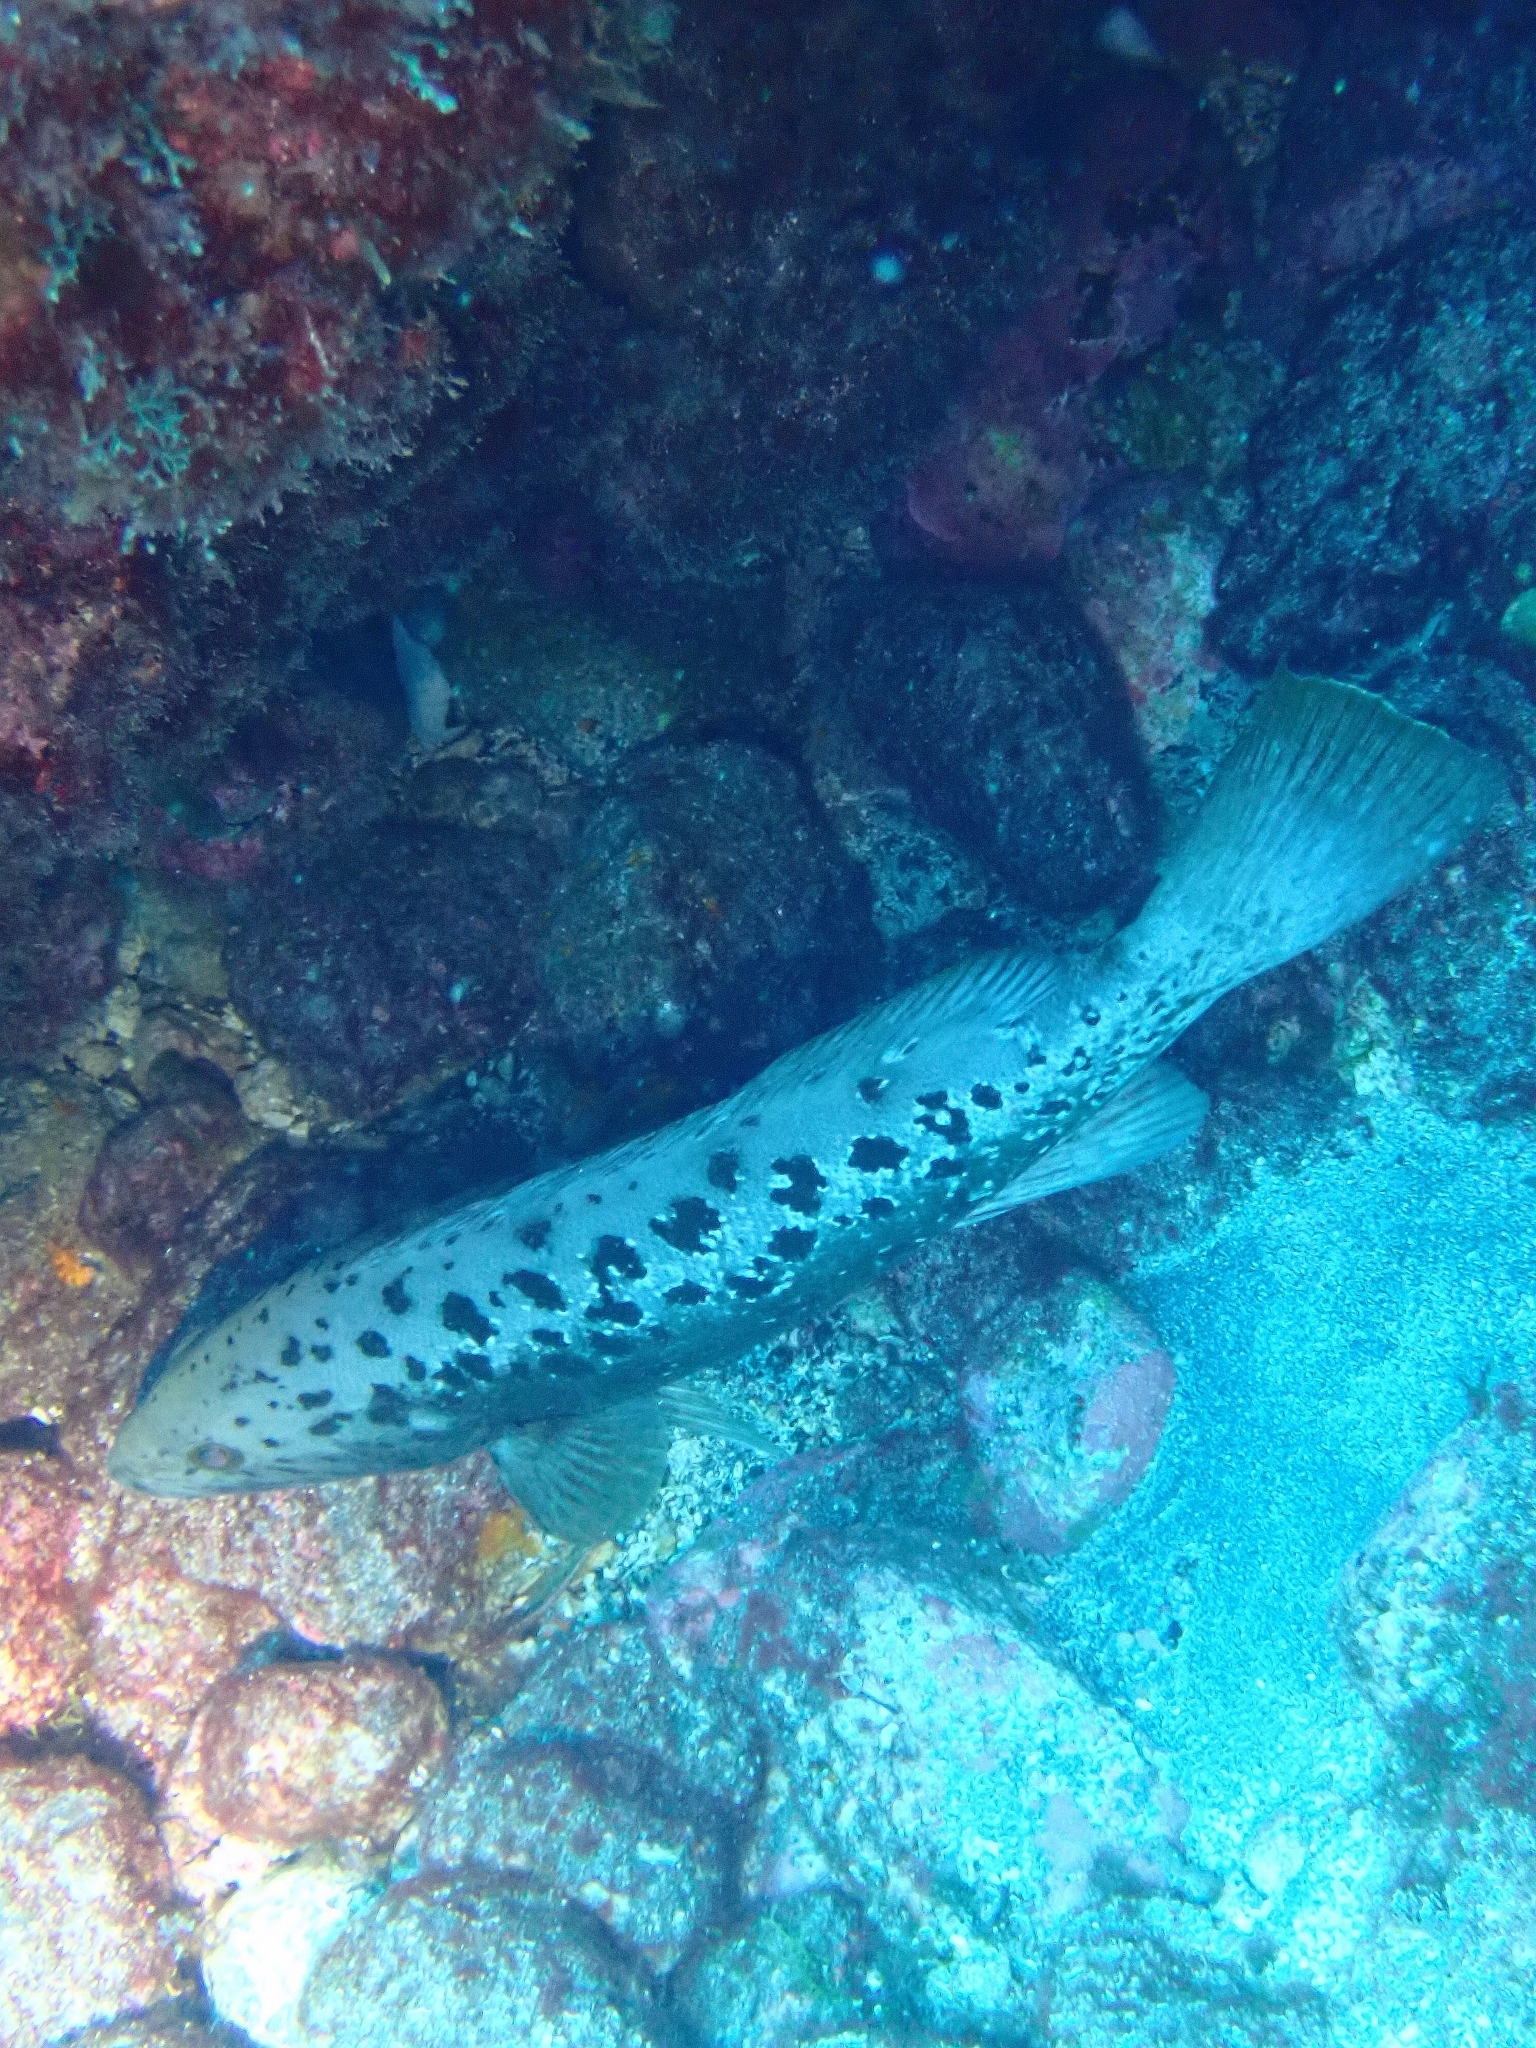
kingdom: Animalia
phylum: Chordata
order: Perciformes
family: Serranidae
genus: Mycteroperca
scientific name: Mycteroperca fusca
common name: Island grouper
